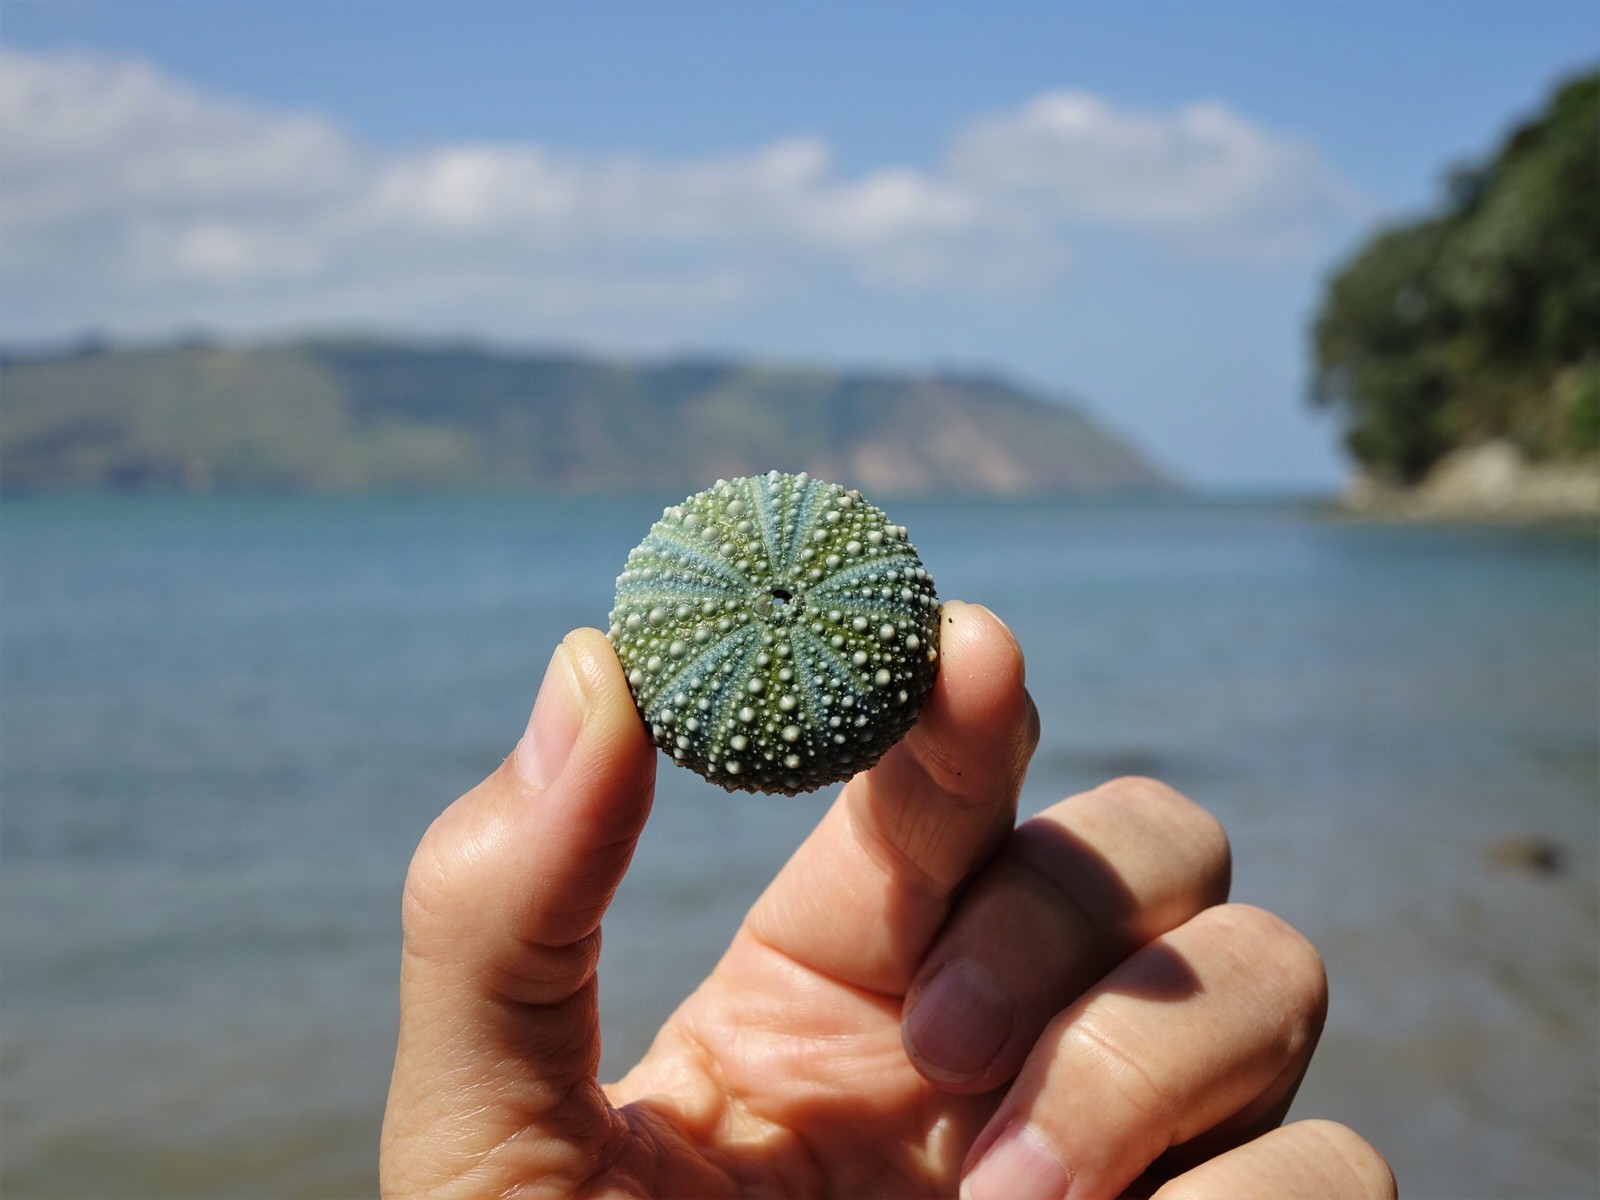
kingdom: Animalia
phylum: Echinodermata
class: Echinoidea
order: Camarodonta
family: Echinometridae
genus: Evechinus
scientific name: Evechinus chloroticus
